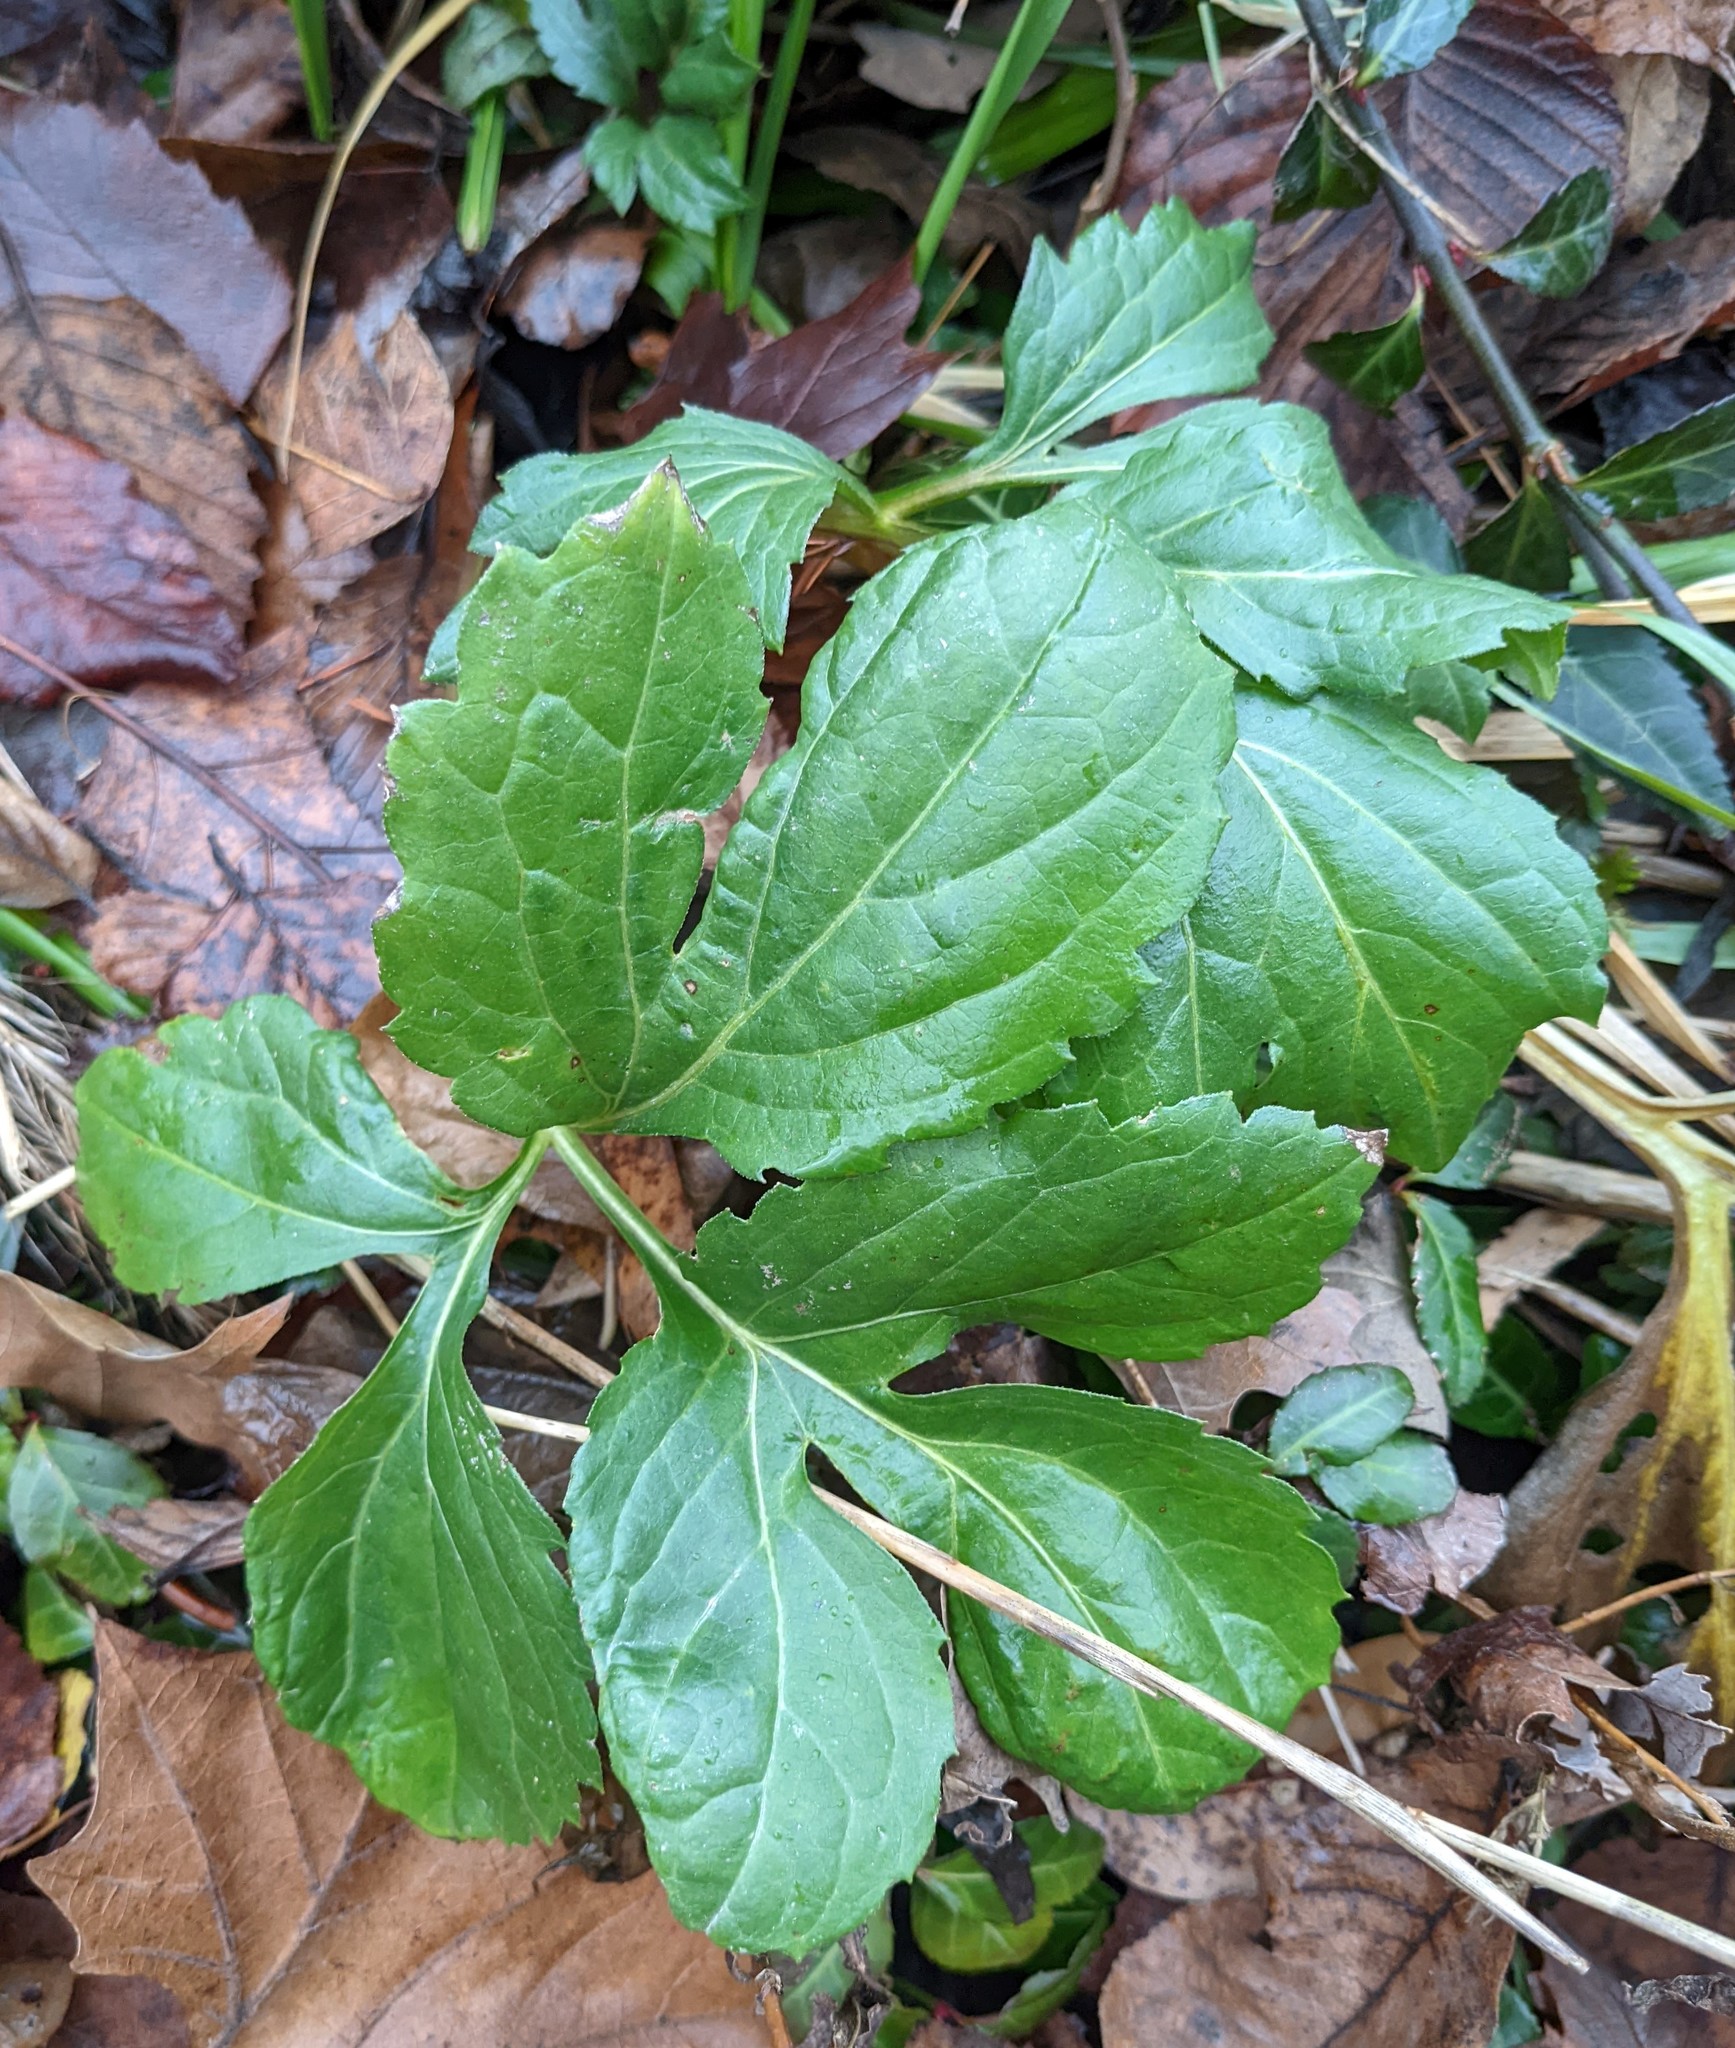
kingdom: Plantae
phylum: Tracheophyta
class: Magnoliopsida
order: Asterales
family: Asteraceae
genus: Rudbeckia
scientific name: Rudbeckia laciniata
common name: Coneflower
